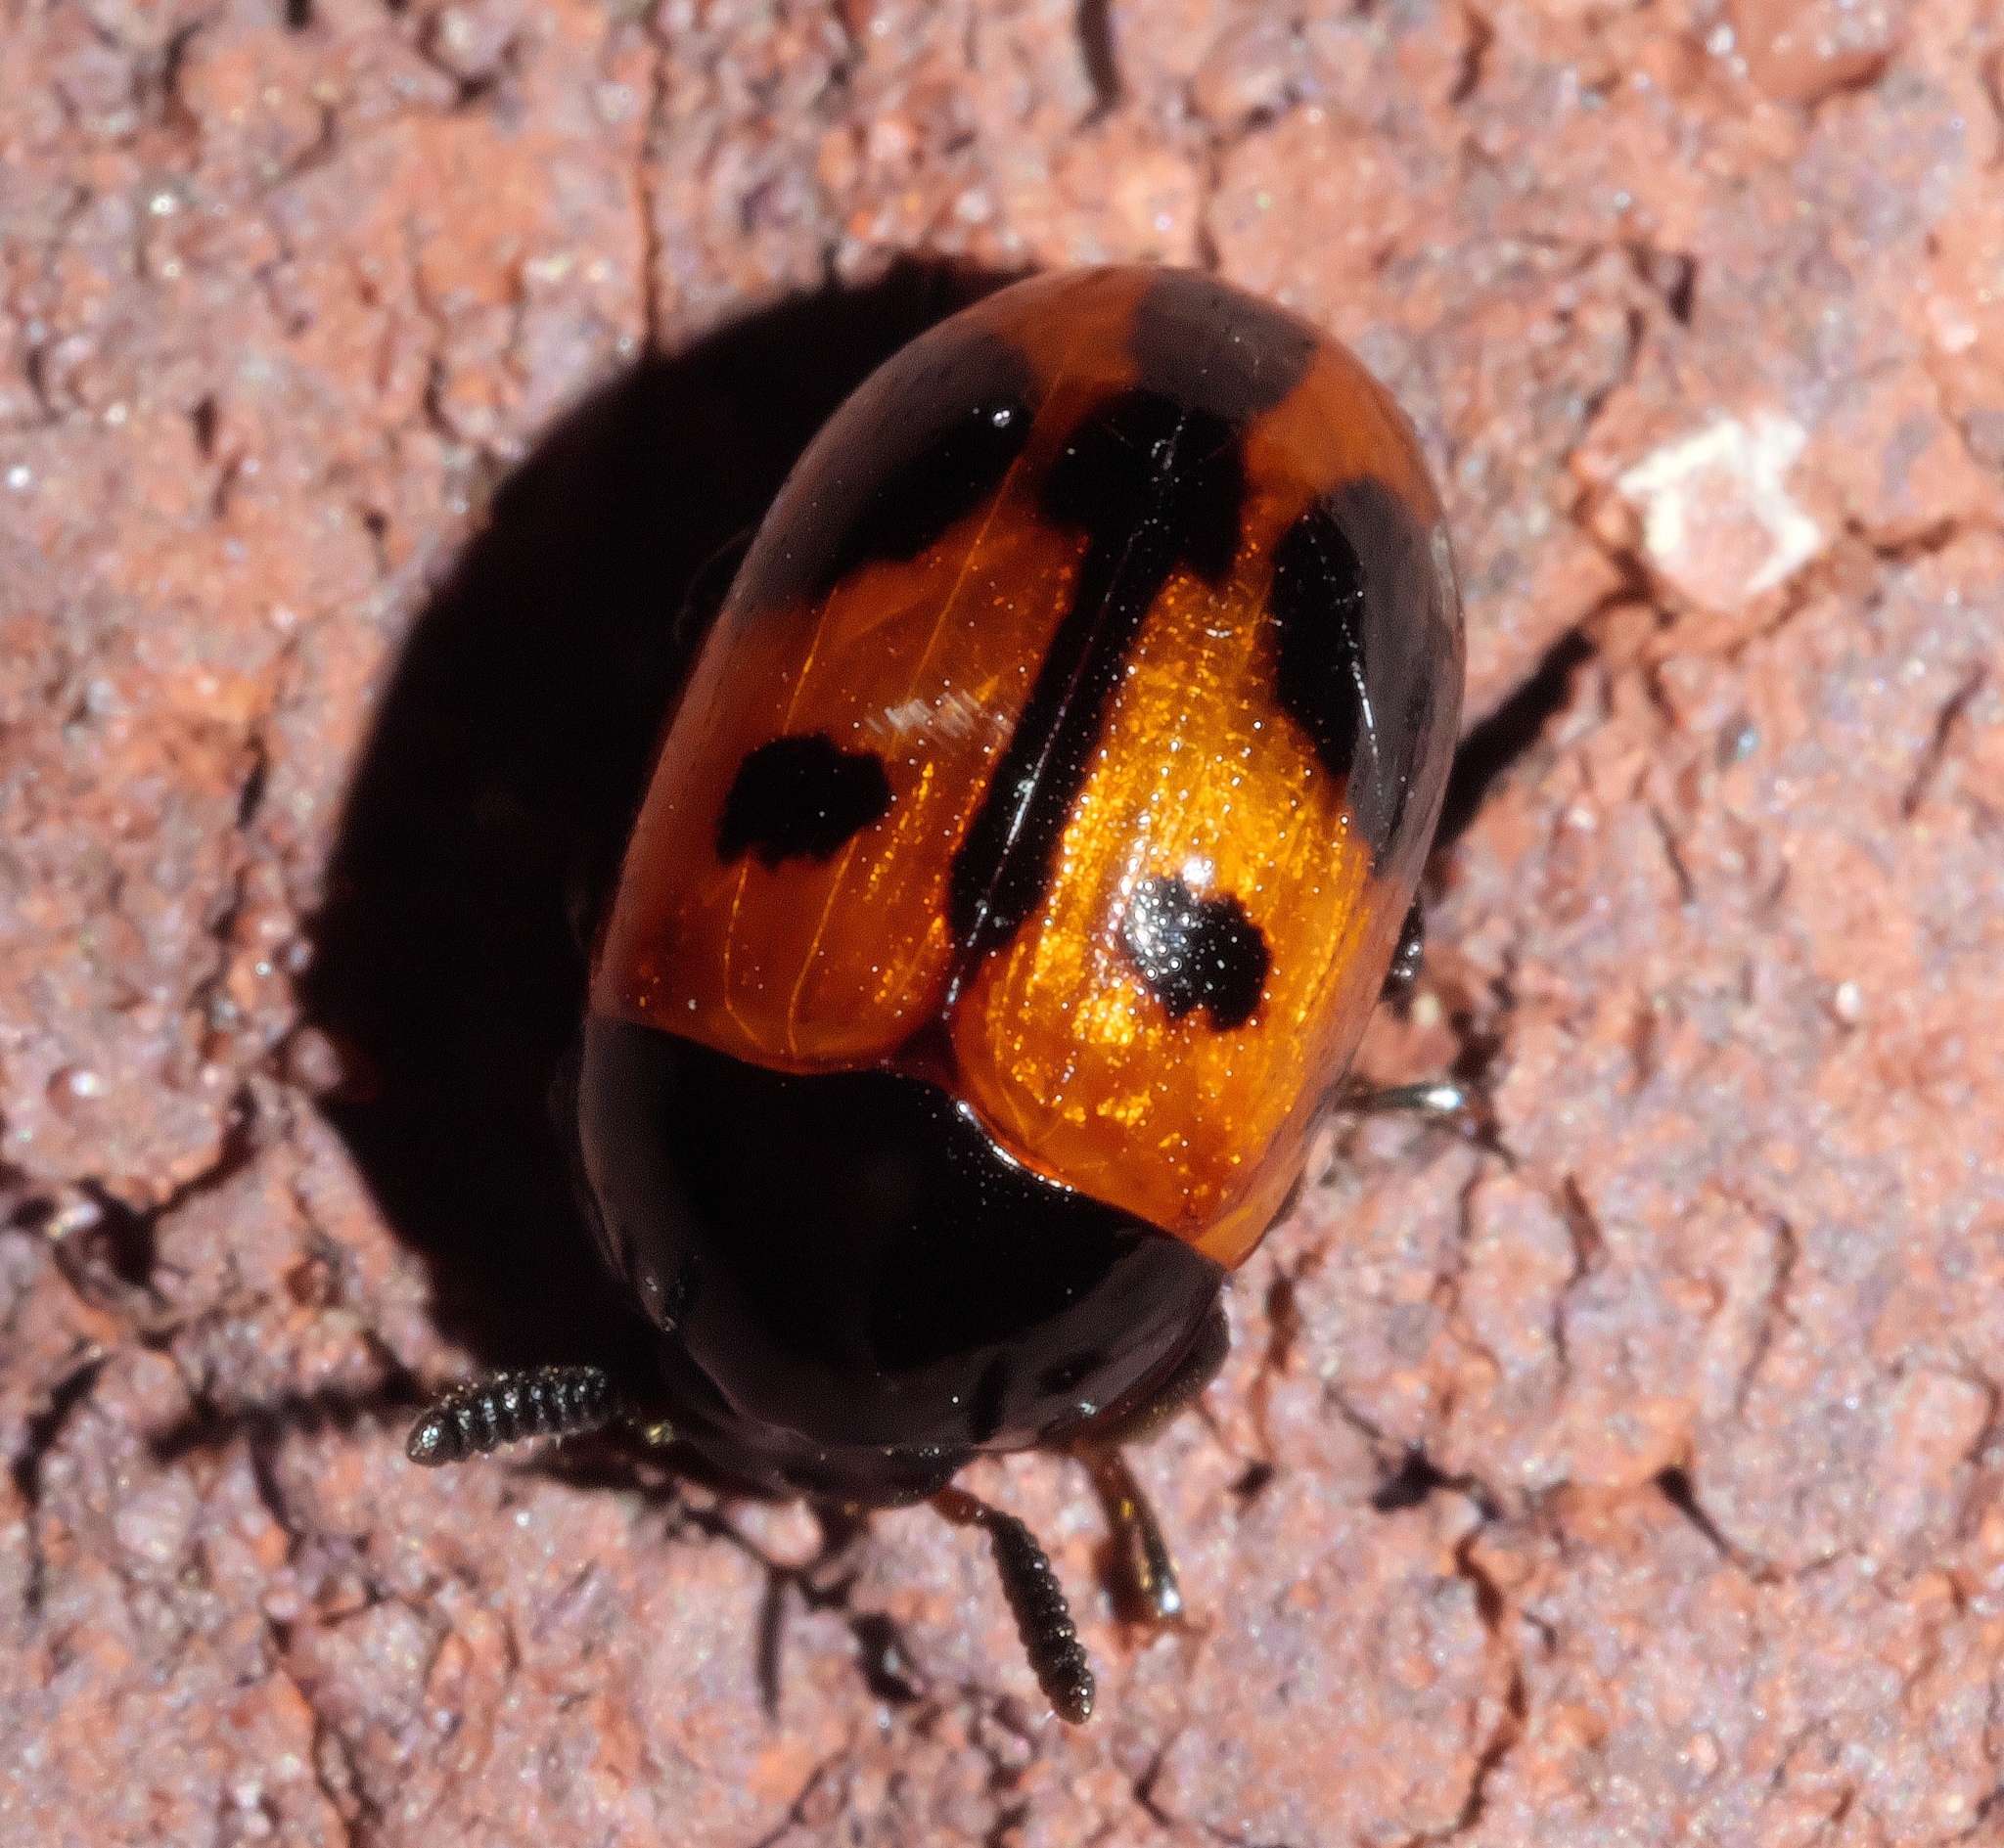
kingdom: Animalia
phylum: Arthropoda
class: Insecta
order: Coleoptera
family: Tenebrionidae
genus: Diaperis
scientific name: Diaperis maculata
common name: Darkling beetle
